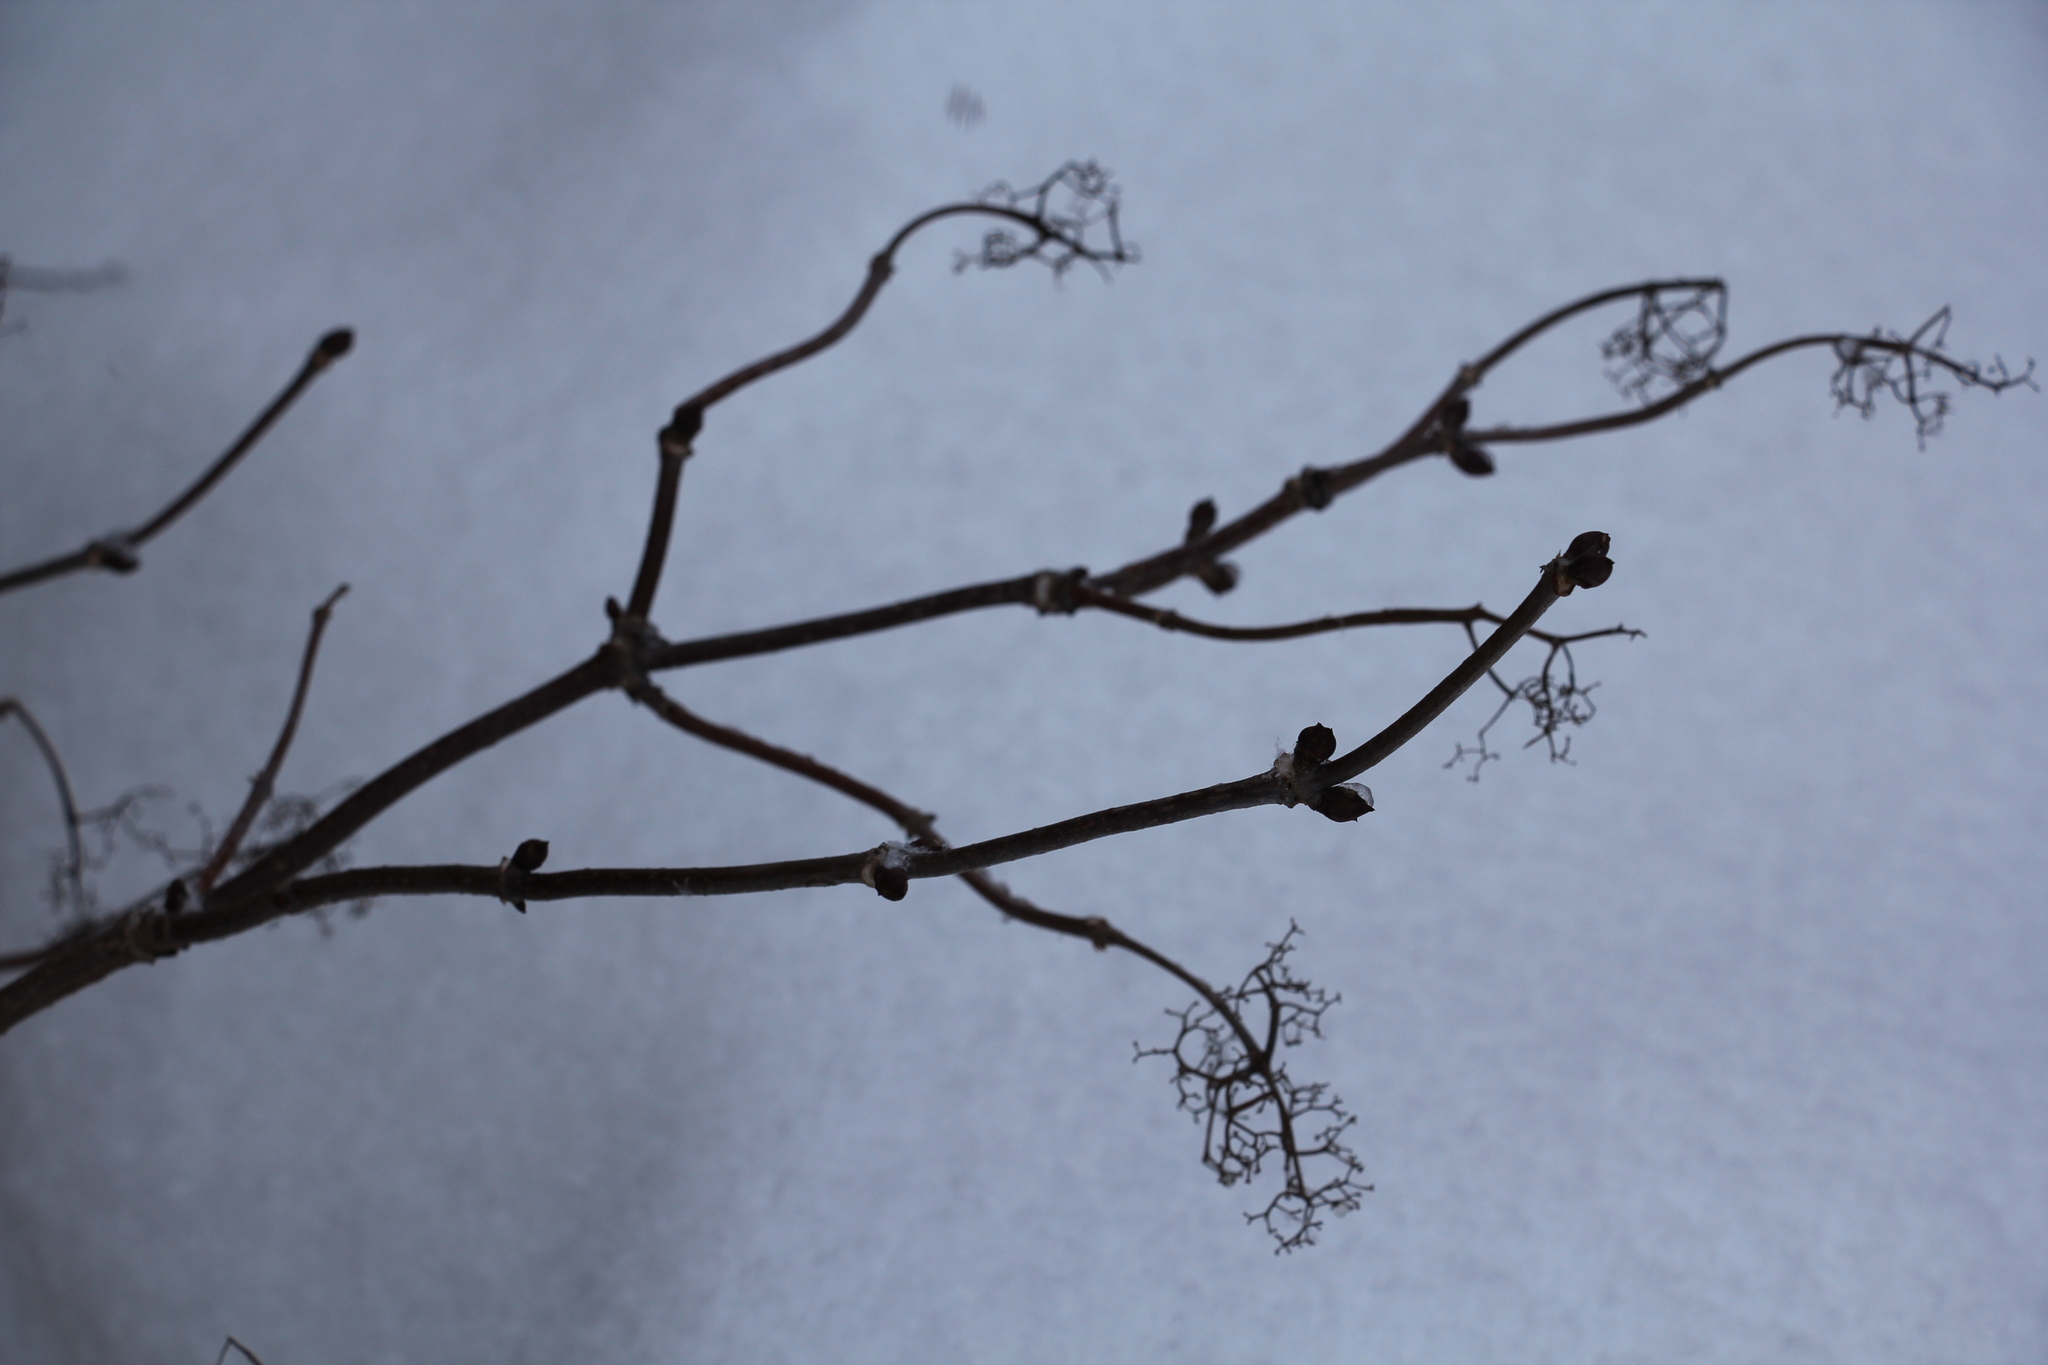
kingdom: Plantae
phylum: Tracheophyta
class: Magnoliopsida
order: Dipsacales
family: Viburnaceae
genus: Sambucus
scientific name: Sambucus sibirica
